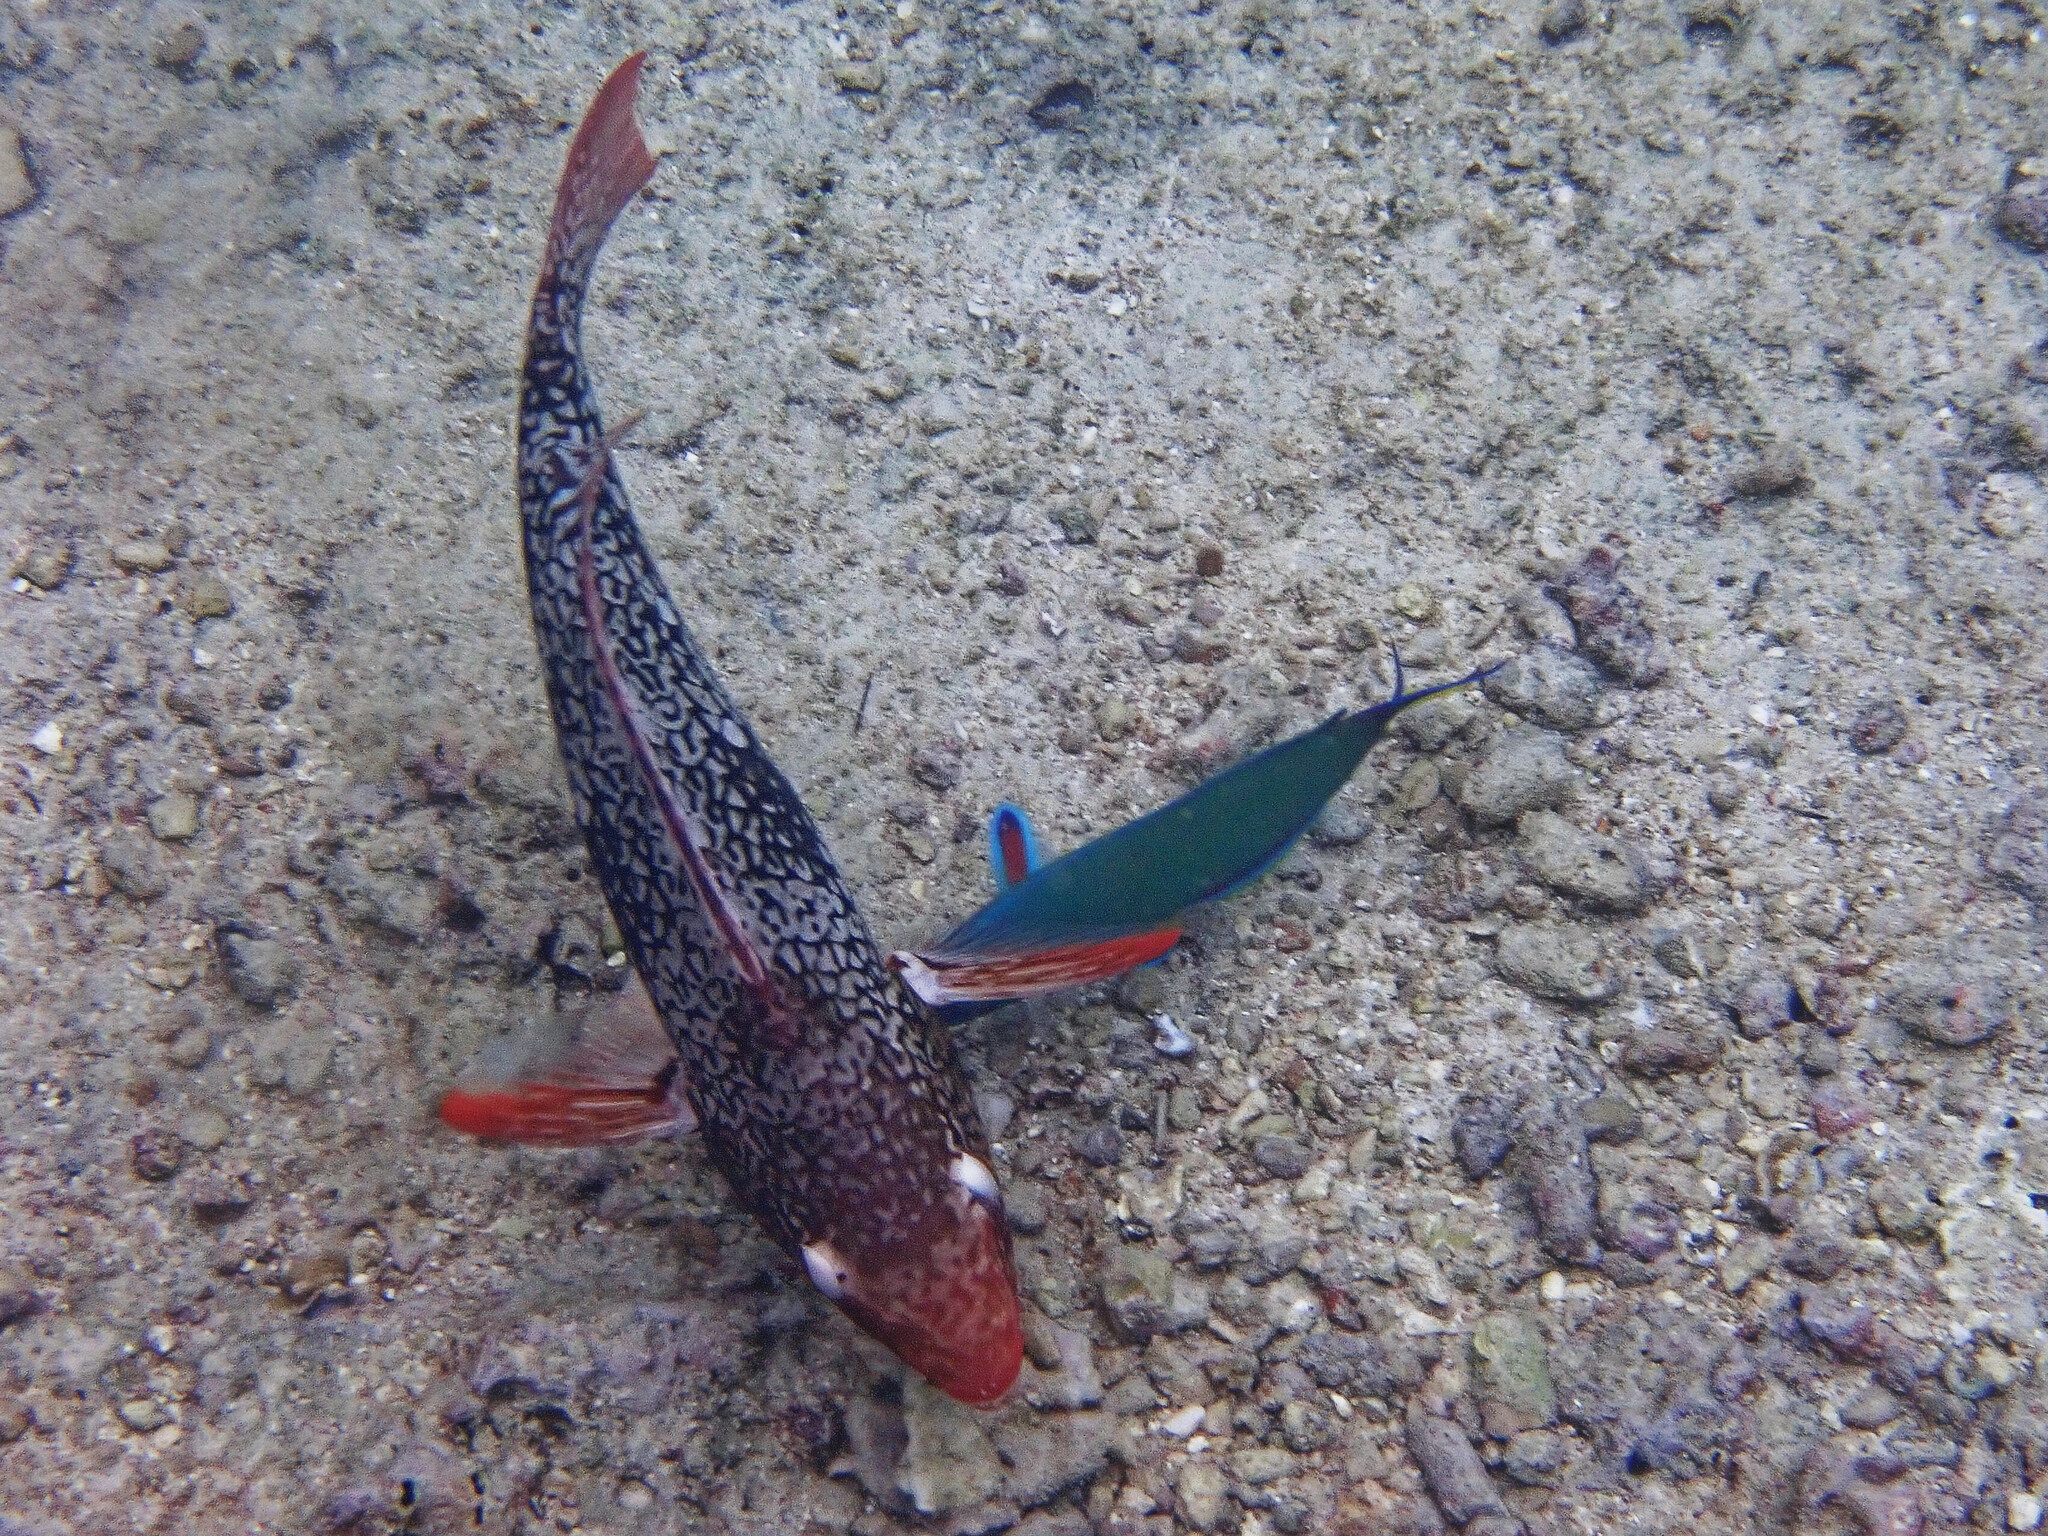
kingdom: Animalia
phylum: Chordata
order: Perciformes
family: Scaridae
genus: Scarus
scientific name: Scarus rubroviolaceus
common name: Ember parrotfish
